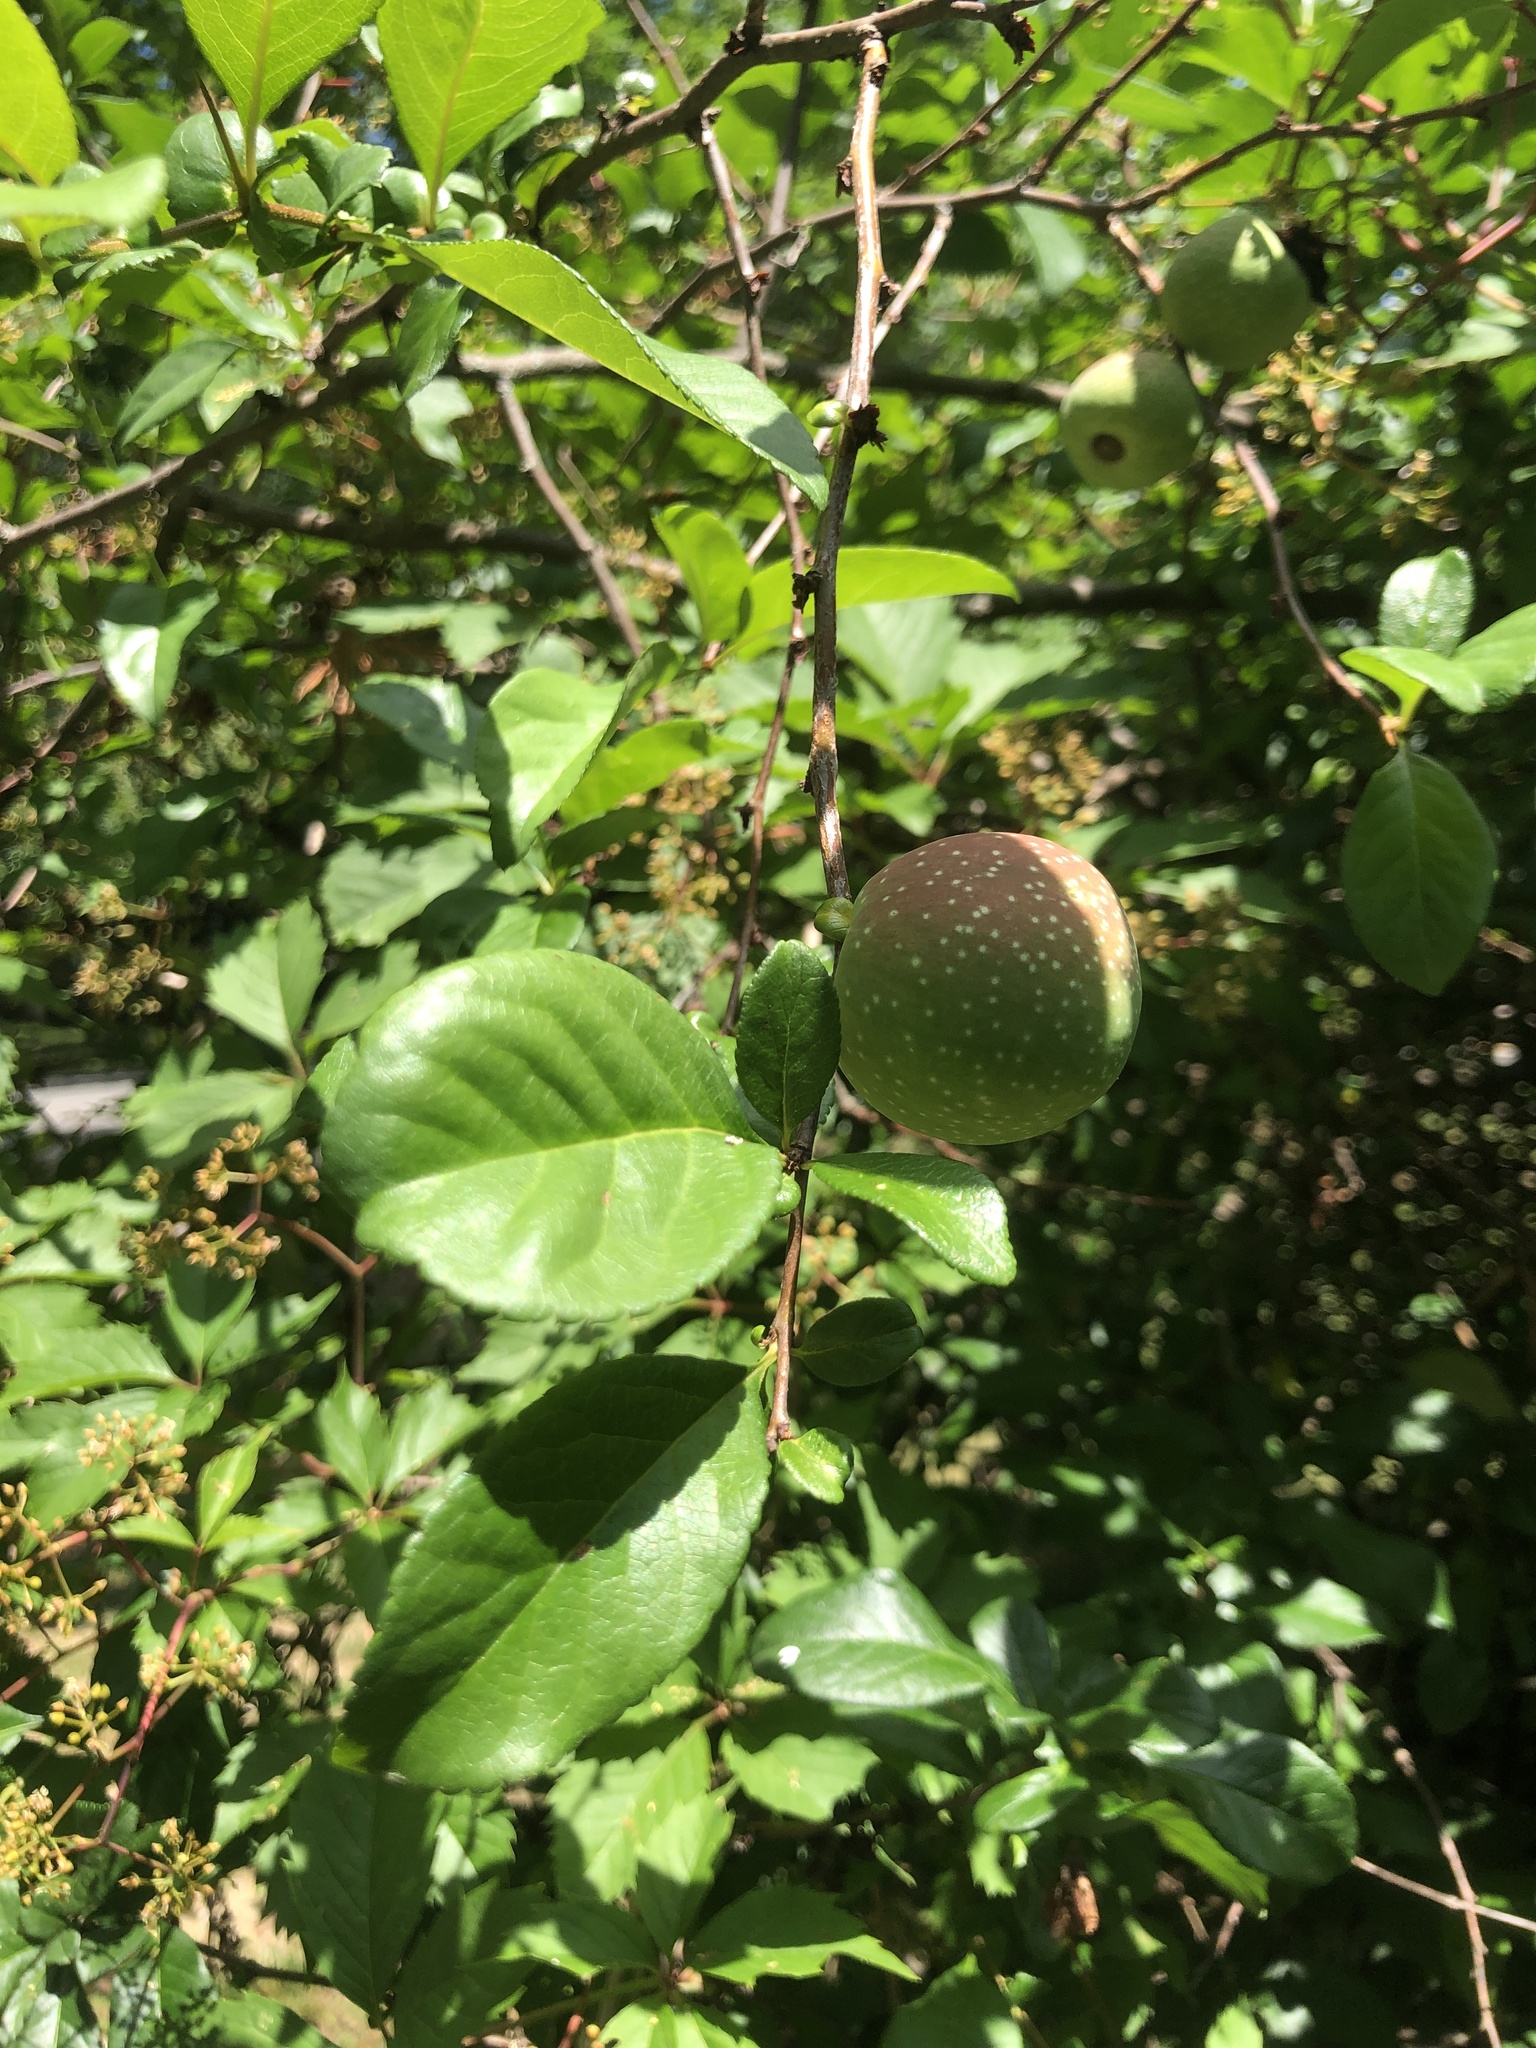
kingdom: Plantae
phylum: Tracheophyta
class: Magnoliopsida
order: Rosales
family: Rosaceae
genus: Chaenomeles
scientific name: Chaenomeles speciosa
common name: Japanese quince
